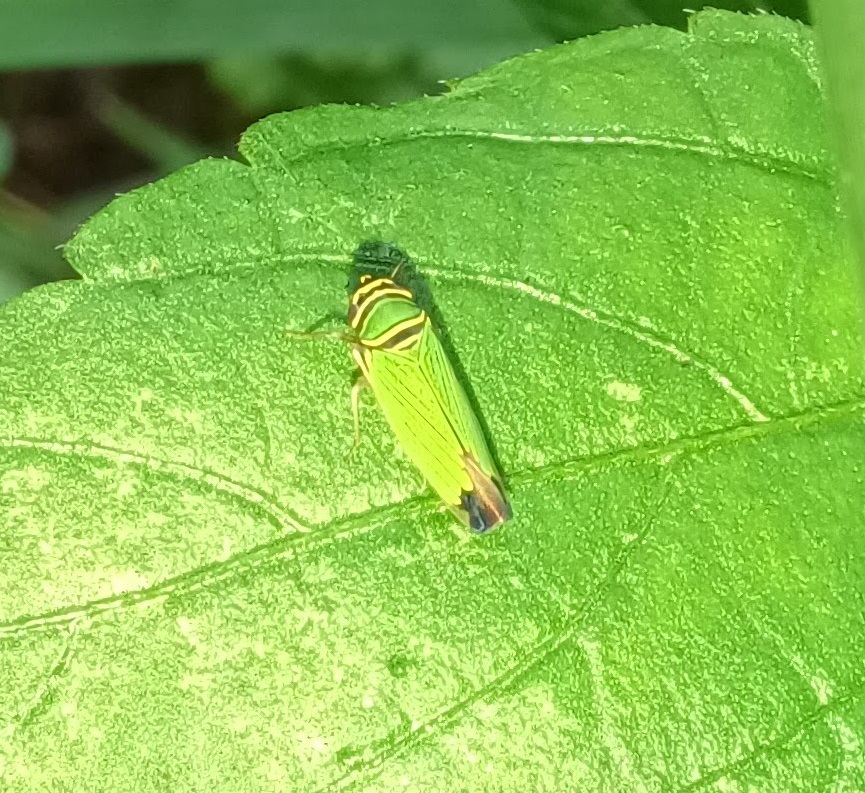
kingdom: Animalia
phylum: Arthropoda
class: Insecta
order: Hemiptera
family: Cicadellidae
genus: Tylozygus
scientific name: Tylozygus geometricus
